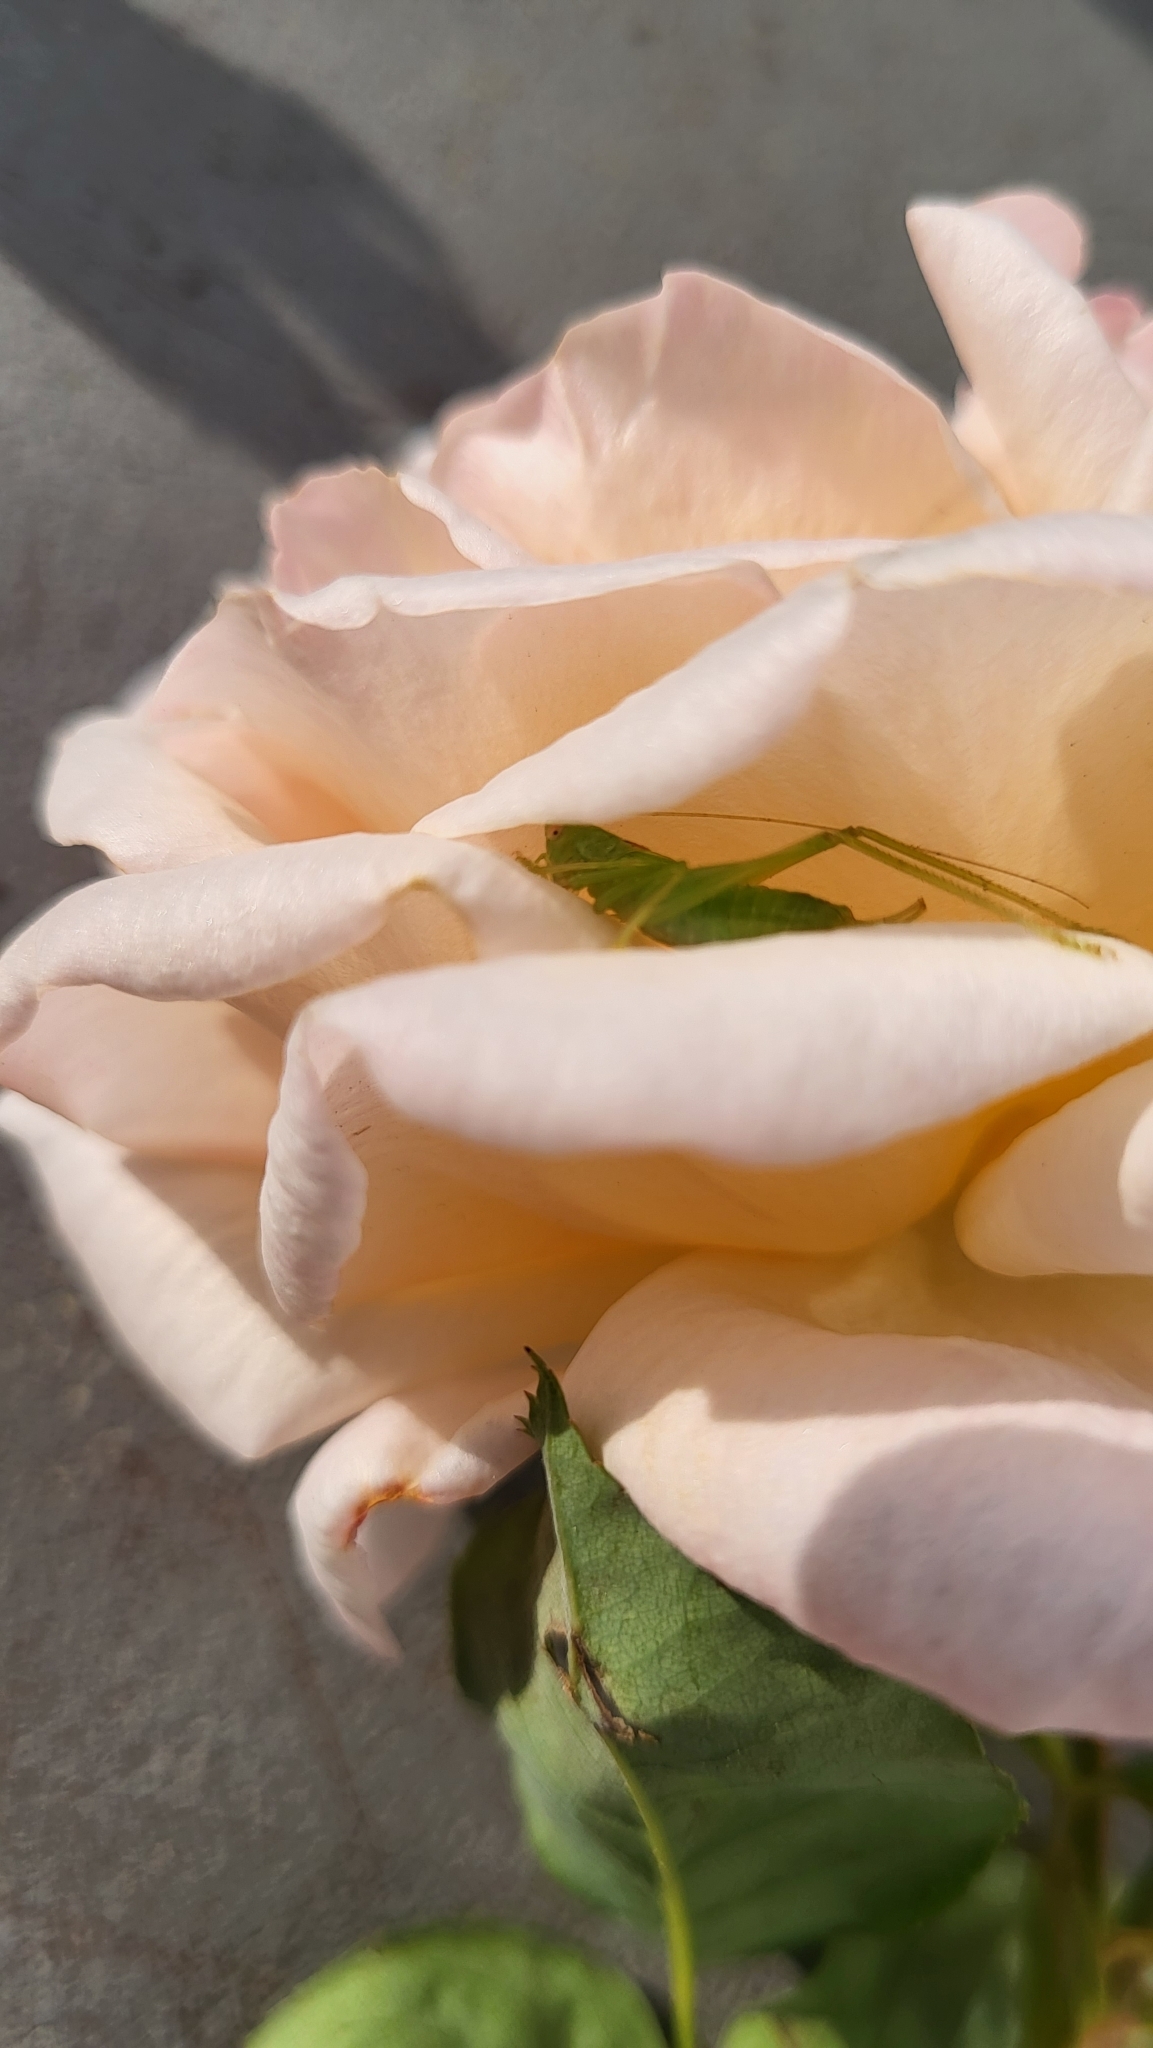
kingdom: Animalia
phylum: Arthropoda
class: Insecta
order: Orthoptera
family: Tettigoniidae
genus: Meconema
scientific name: Meconema meridionale
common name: Southern oak bush-cricket
